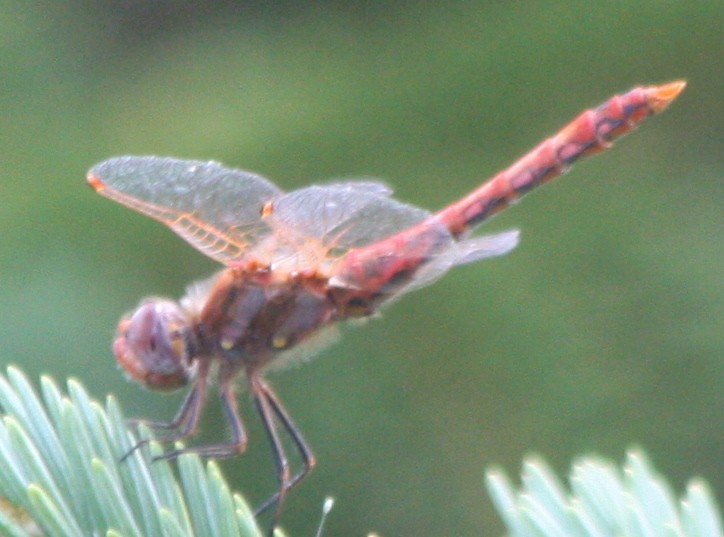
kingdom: Animalia
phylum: Arthropoda
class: Insecta
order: Odonata
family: Libellulidae
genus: Sympetrum
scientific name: Sympetrum corruptum
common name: Variegated meadowhawk
